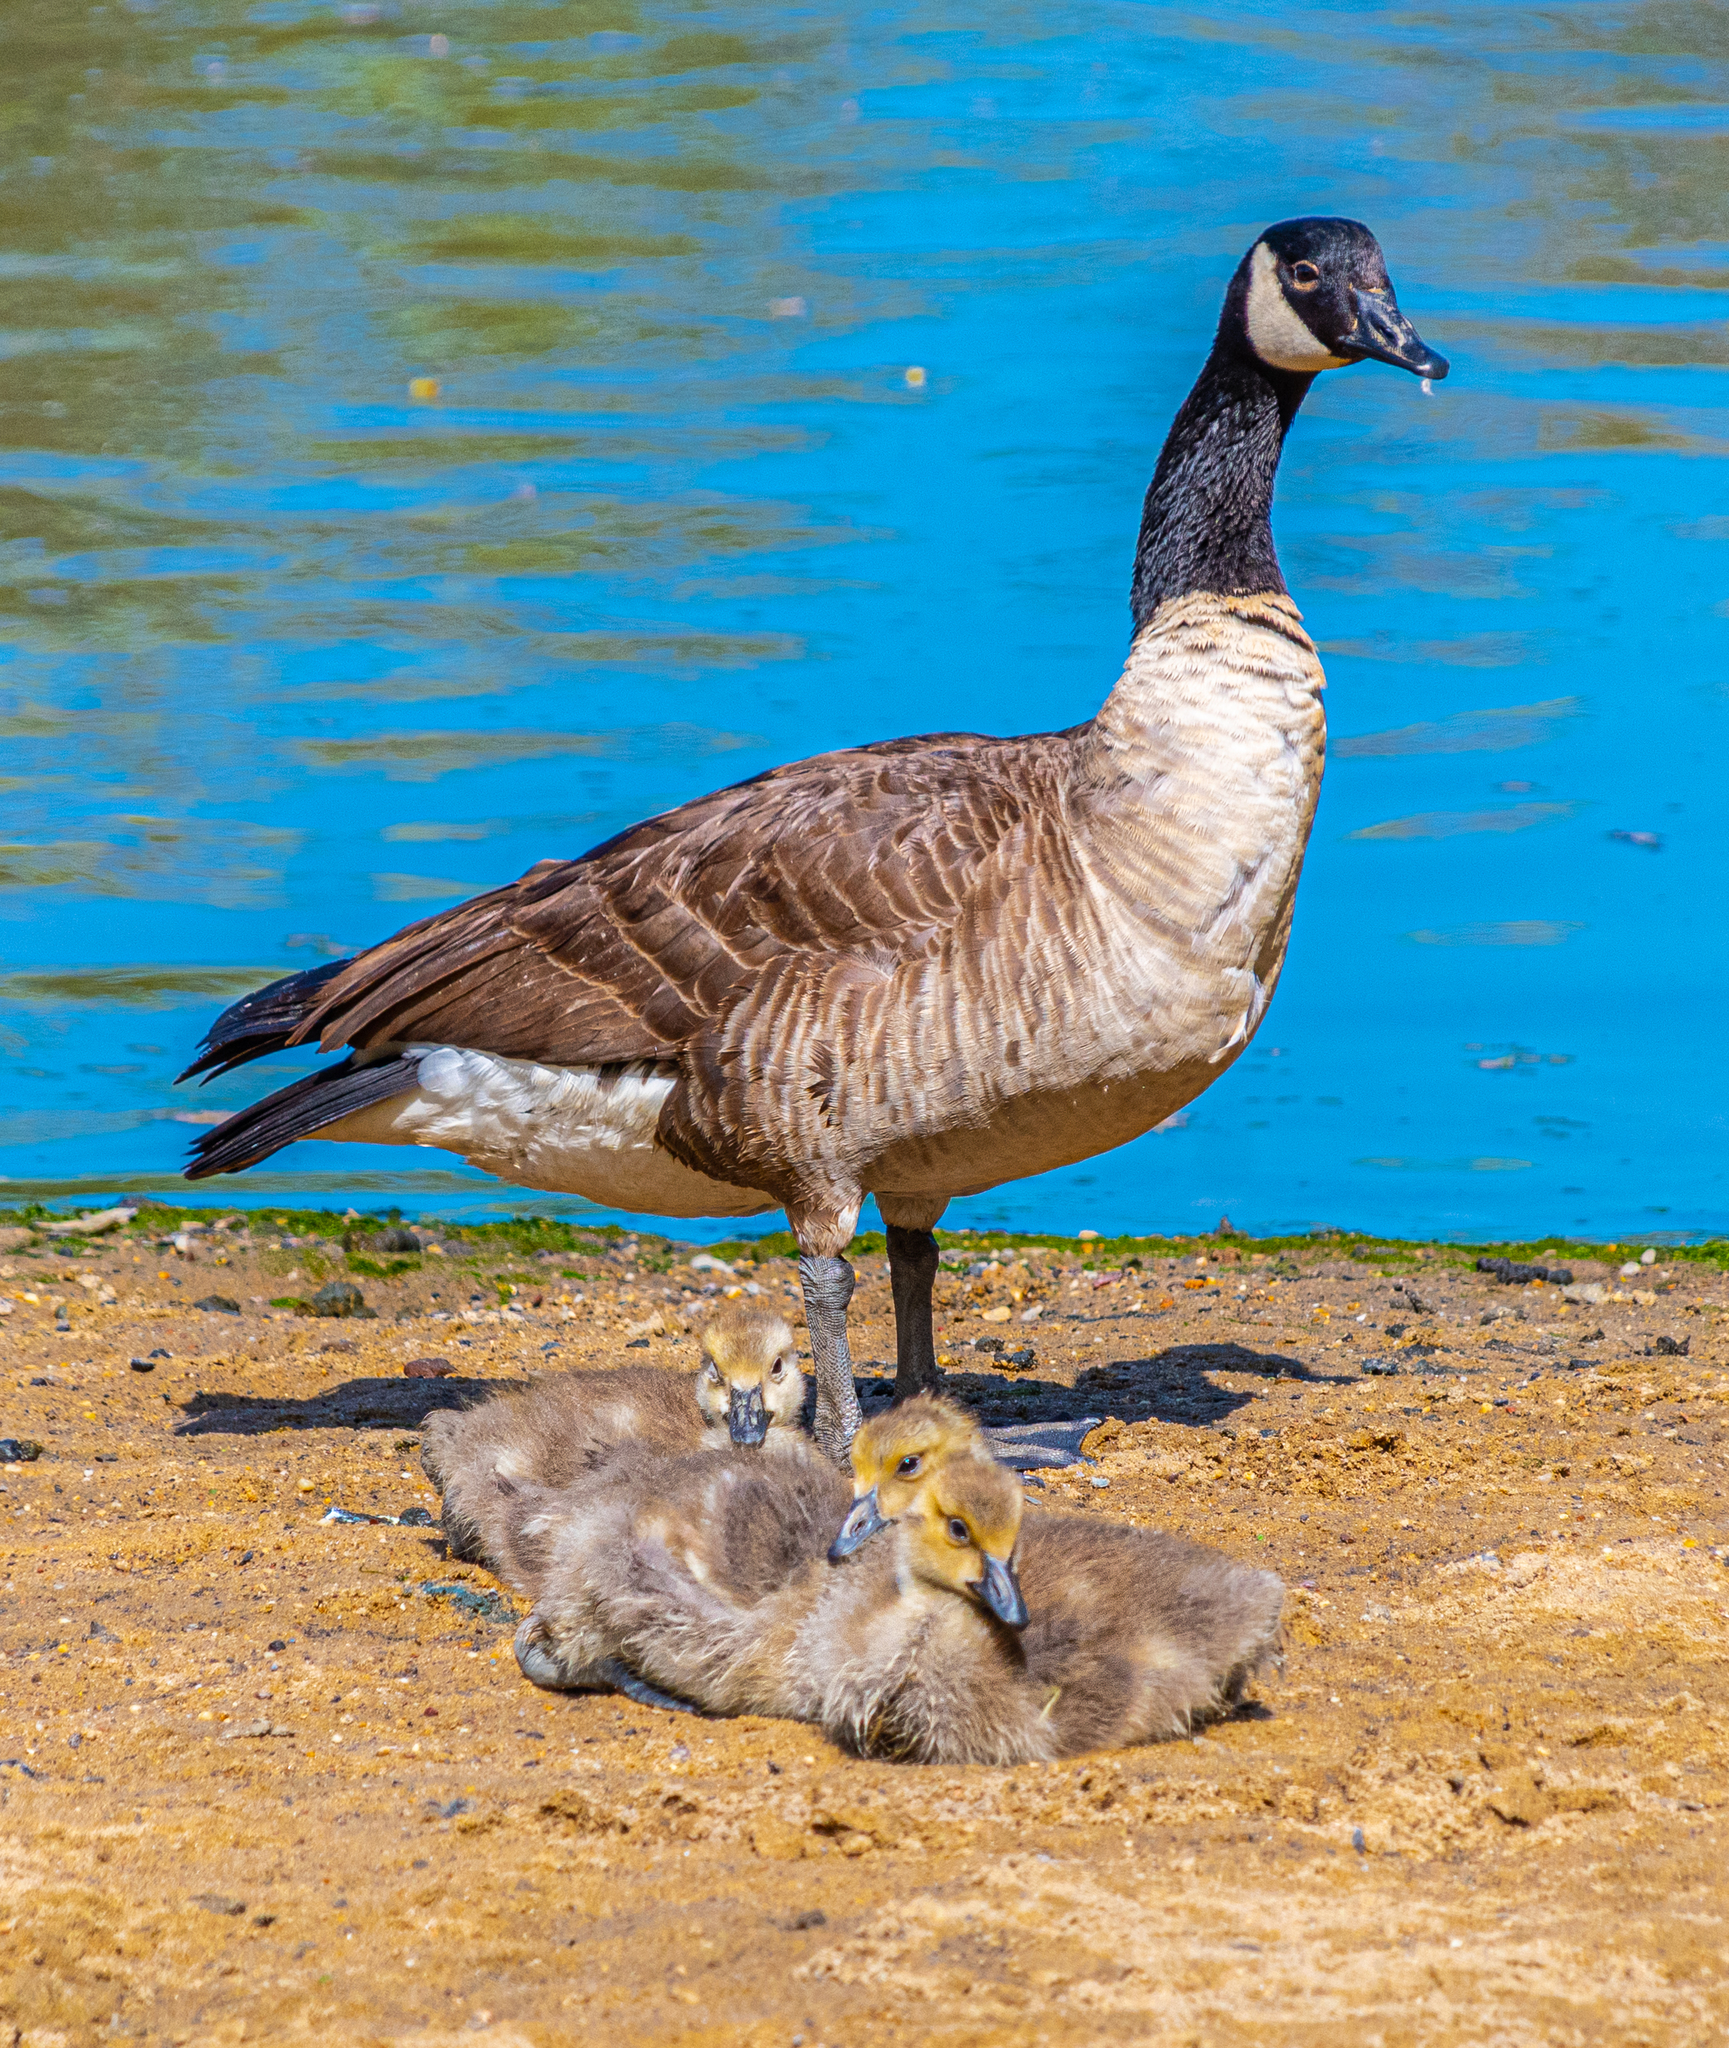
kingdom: Animalia
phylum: Chordata
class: Aves
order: Anseriformes
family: Anatidae
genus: Branta
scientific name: Branta canadensis
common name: Canada goose
